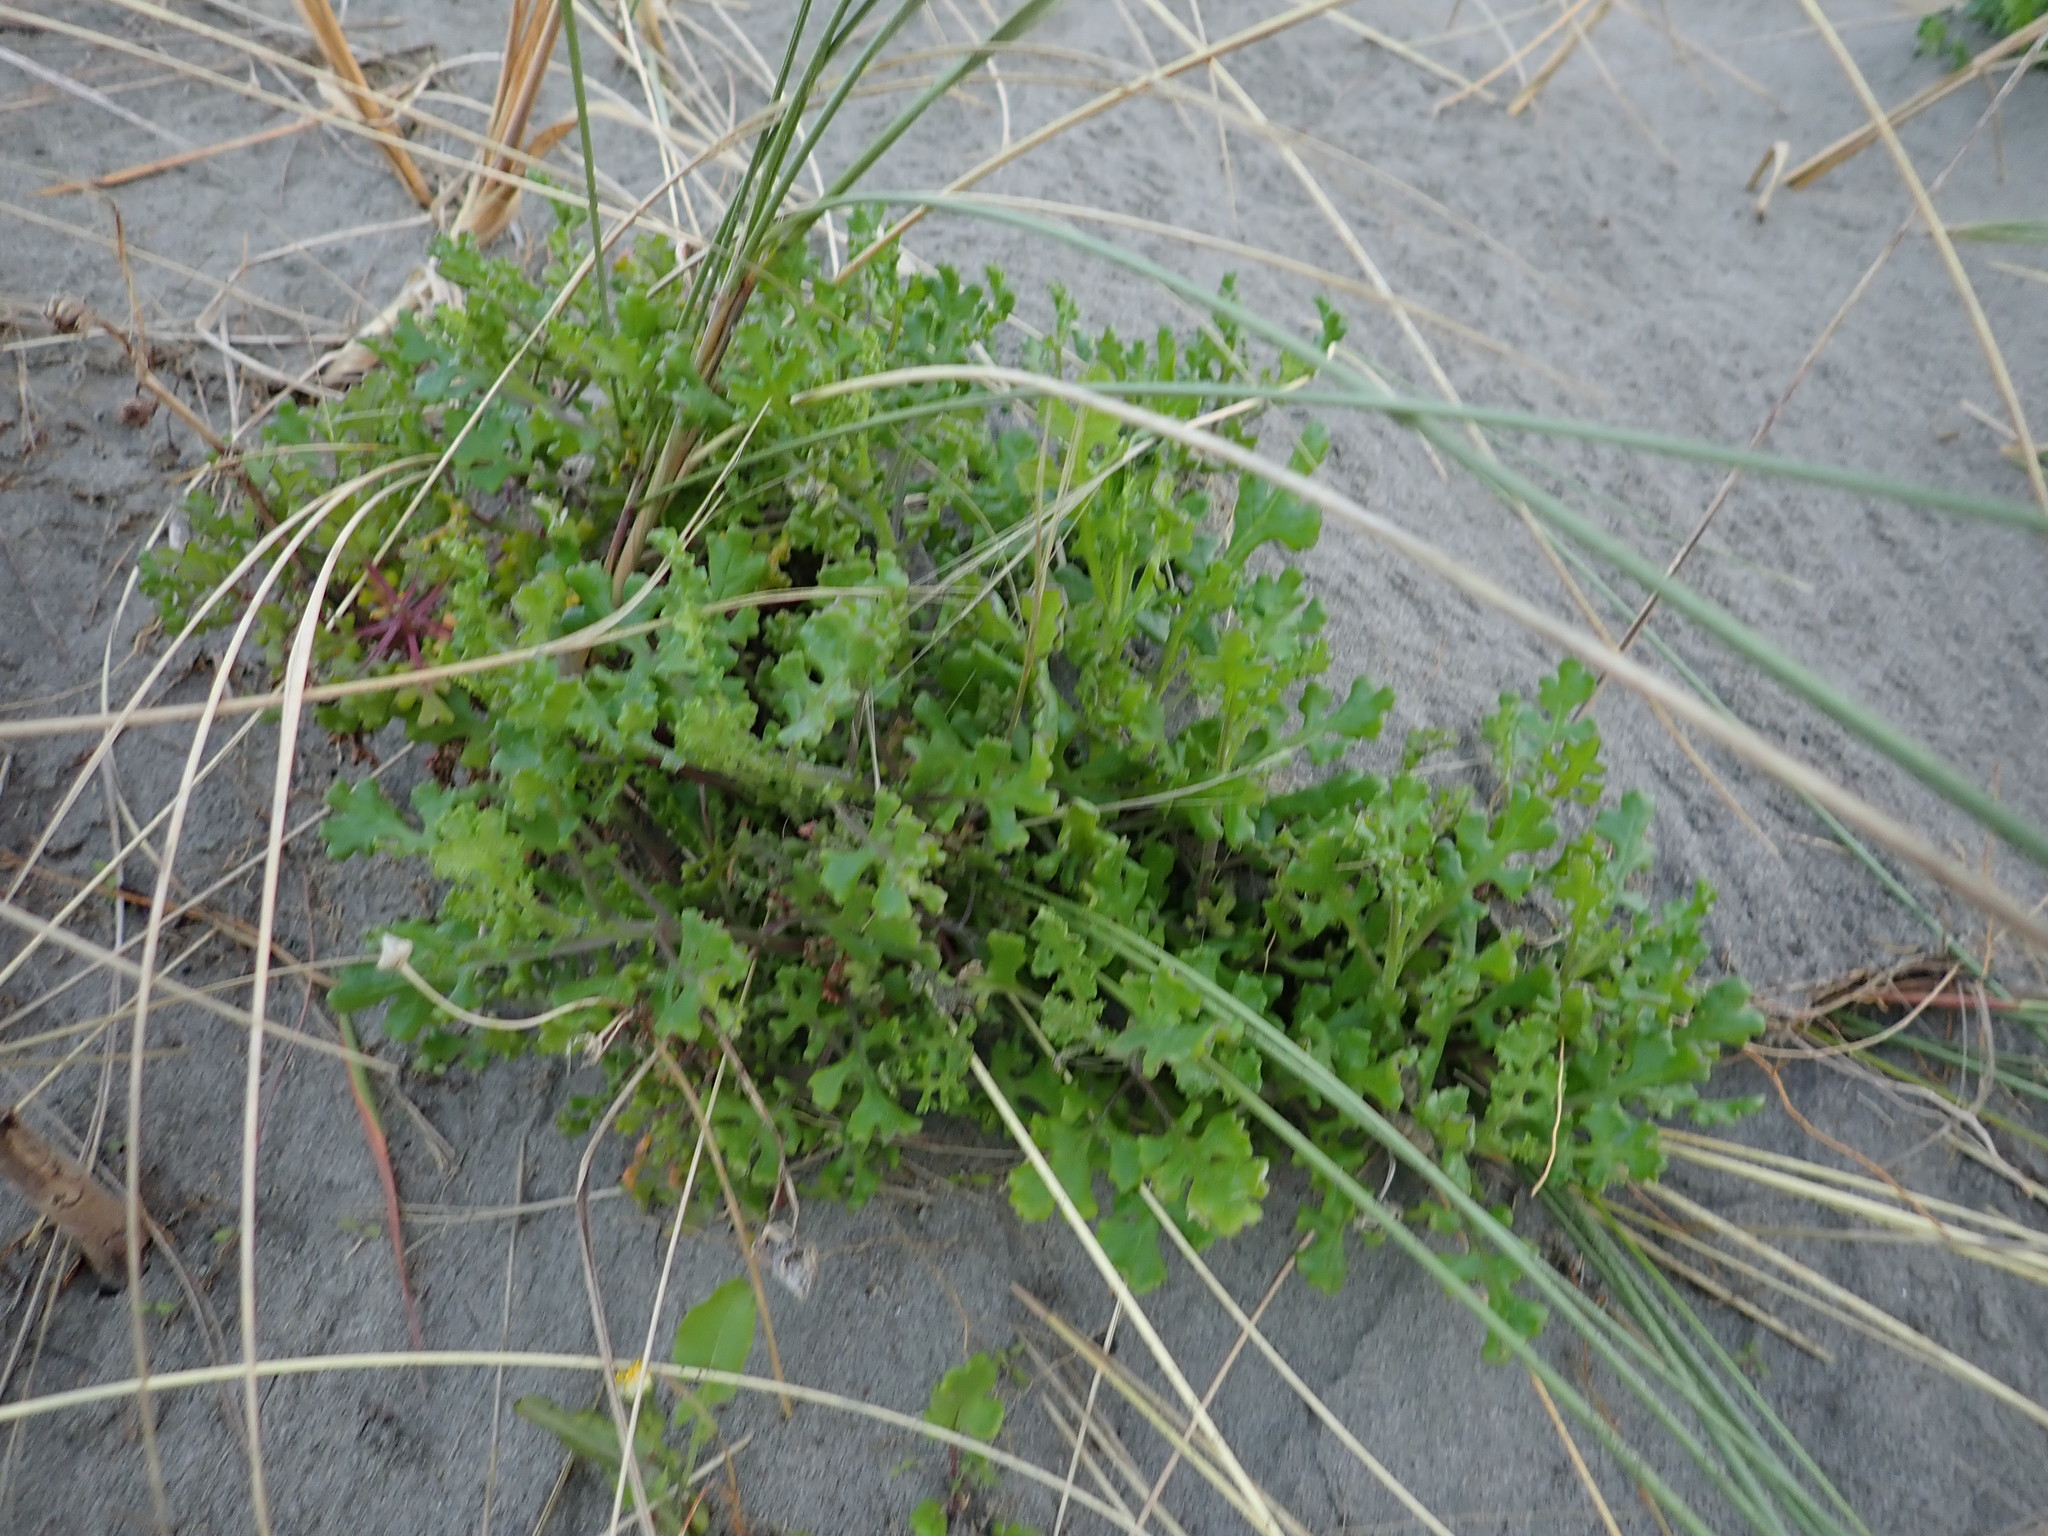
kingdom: Plantae
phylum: Tracheophyta
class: Magnoliopsida
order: Asterales
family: Asteraceae
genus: Senecio
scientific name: Senecio elegans
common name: Purple groundsel
